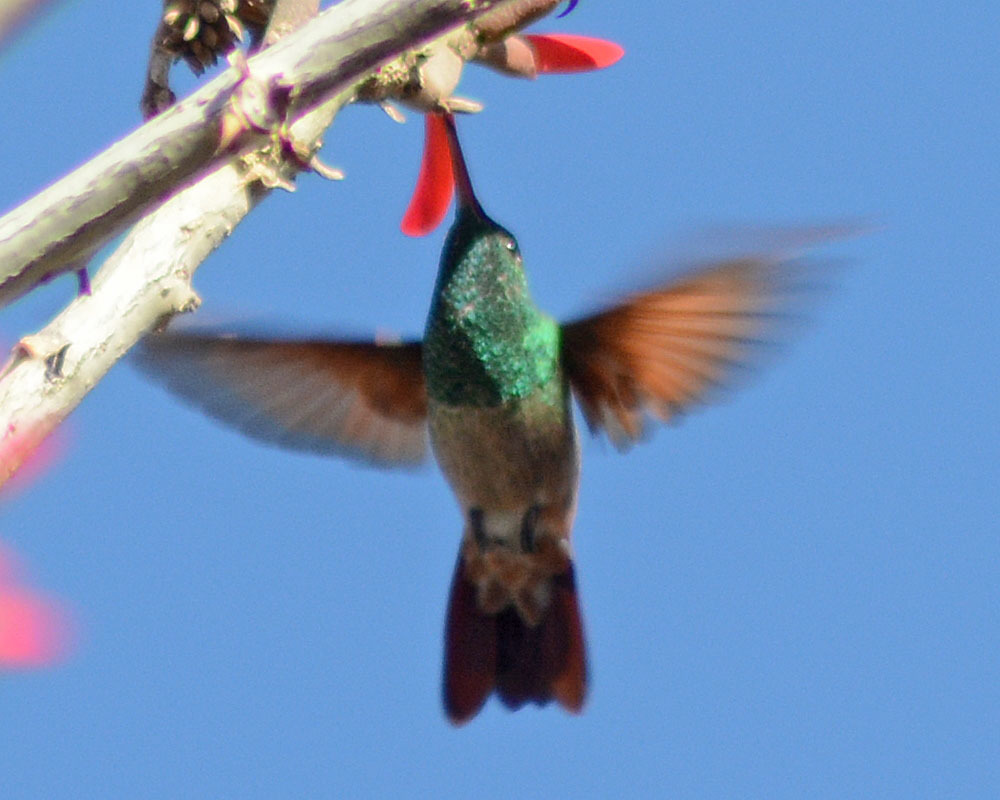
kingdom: Animalia
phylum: Chordata
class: Aves
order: Apodiformes
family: Trochilidae
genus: Saucerottia
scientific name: Saucerottia beryllina
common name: Berylline hummingbird
